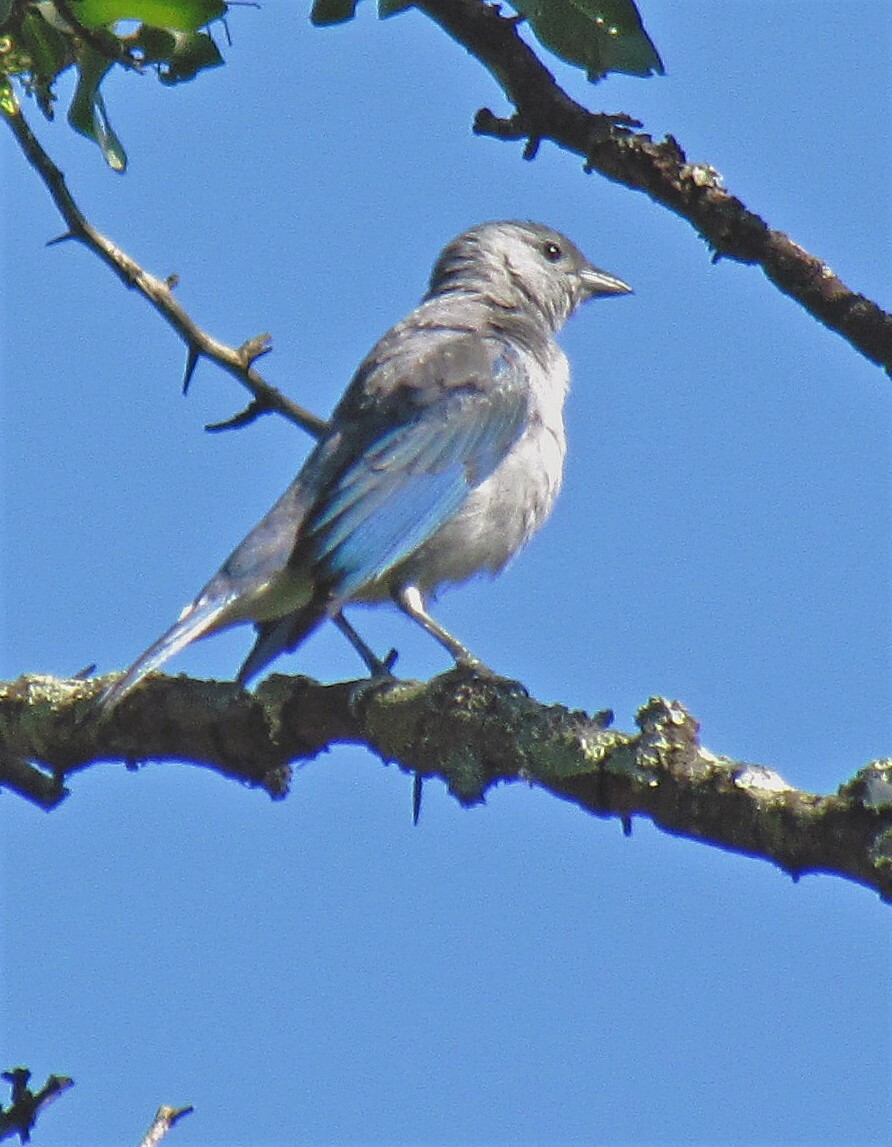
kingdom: Animalia
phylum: Chordata
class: Aves
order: Passeriformes
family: Thraupidae
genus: Thraupis
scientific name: Thraupis sayaca
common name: Sayaca tanager
